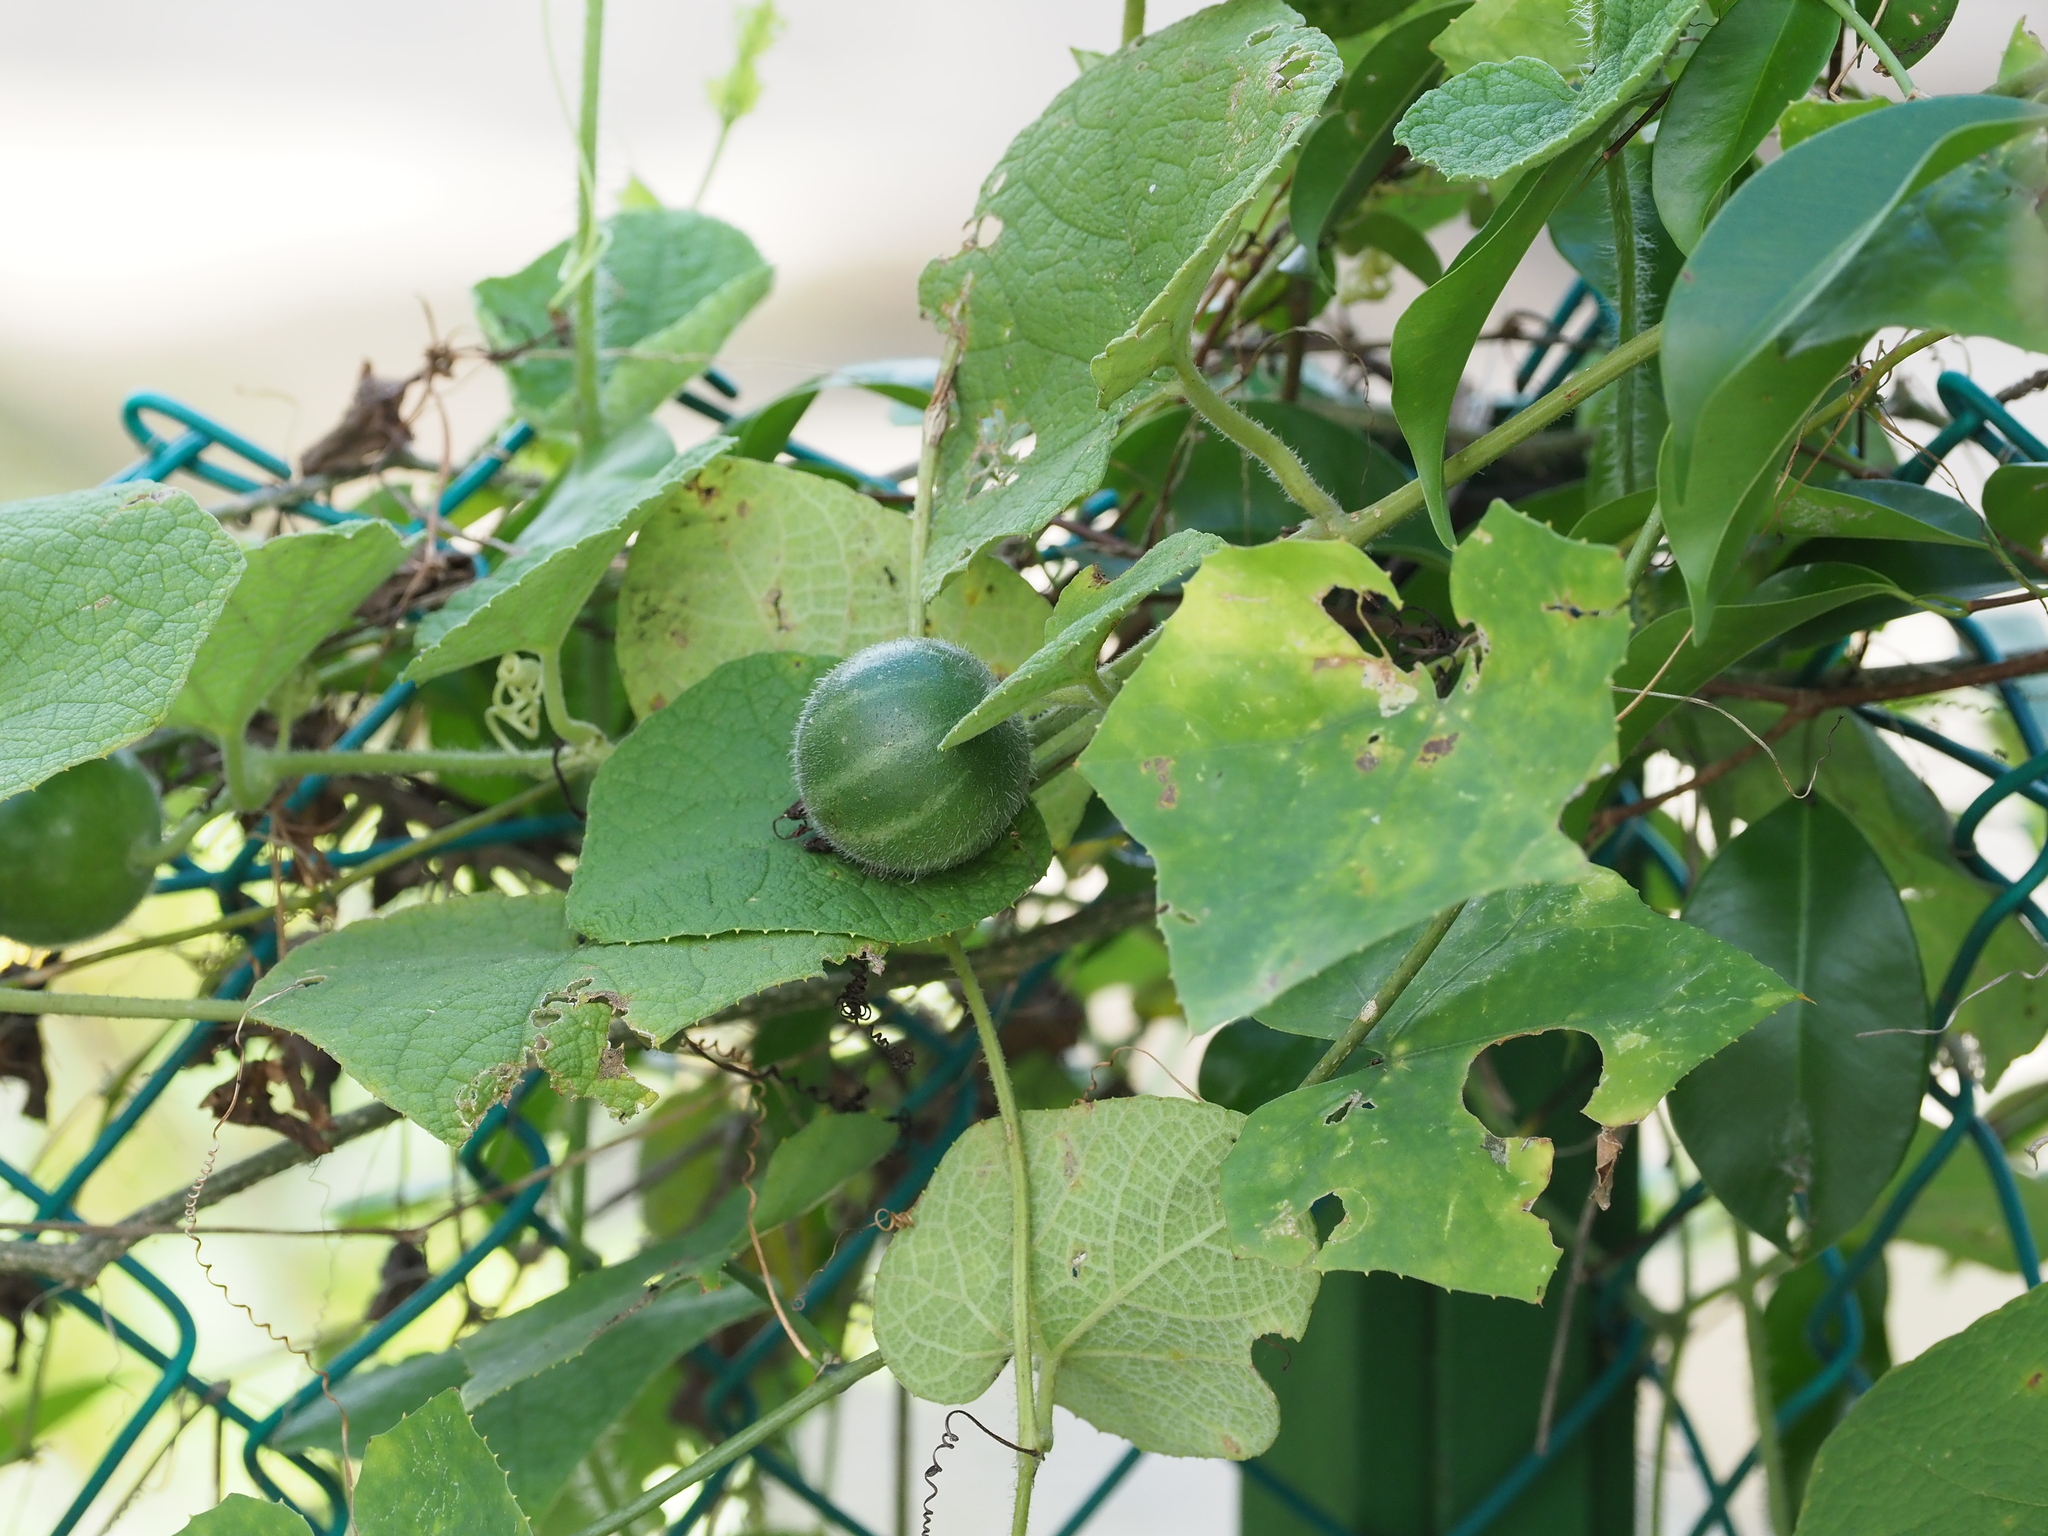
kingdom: Plantae
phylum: Tracheophyta
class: Magnoliopsida
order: Cucurbitales
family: Cucurbitaceae
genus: Trichosanthes
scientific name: Trichosanthes scabra
